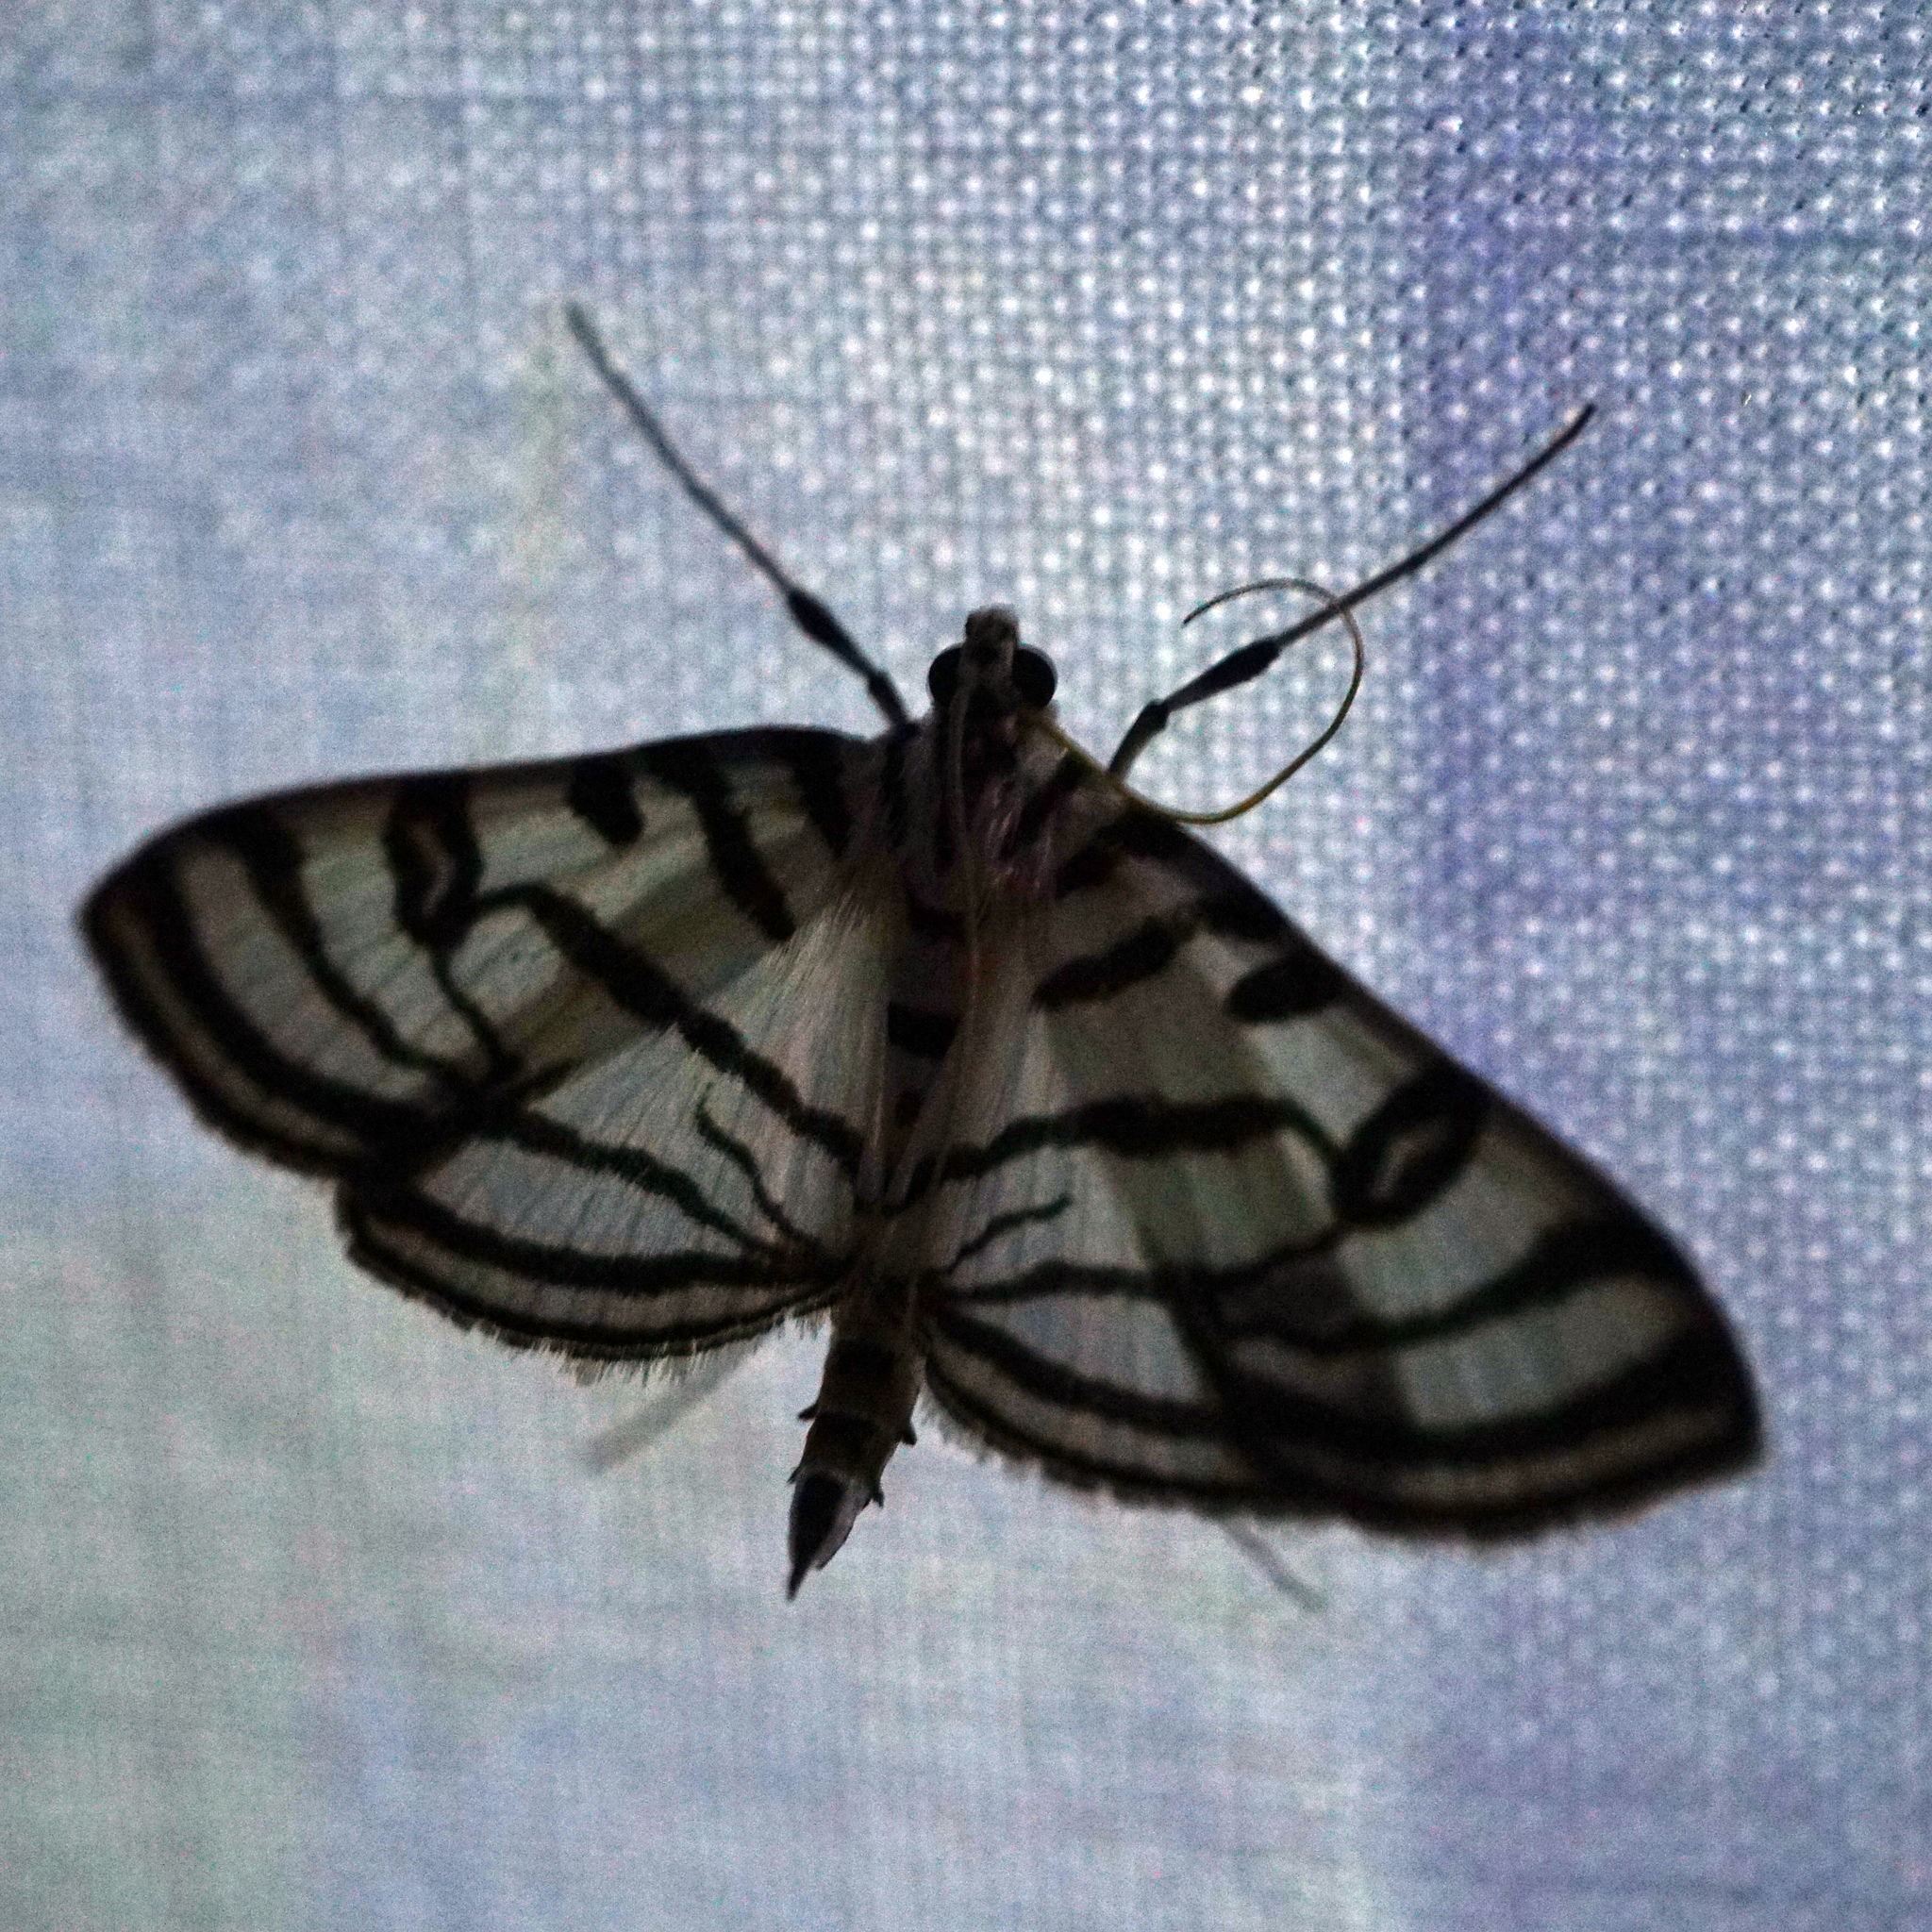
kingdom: Animalia
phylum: Arthropoda
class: Insecta
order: Lepidoptera
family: Crambidae
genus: Conchylodes
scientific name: Conchylodes ovulalis
